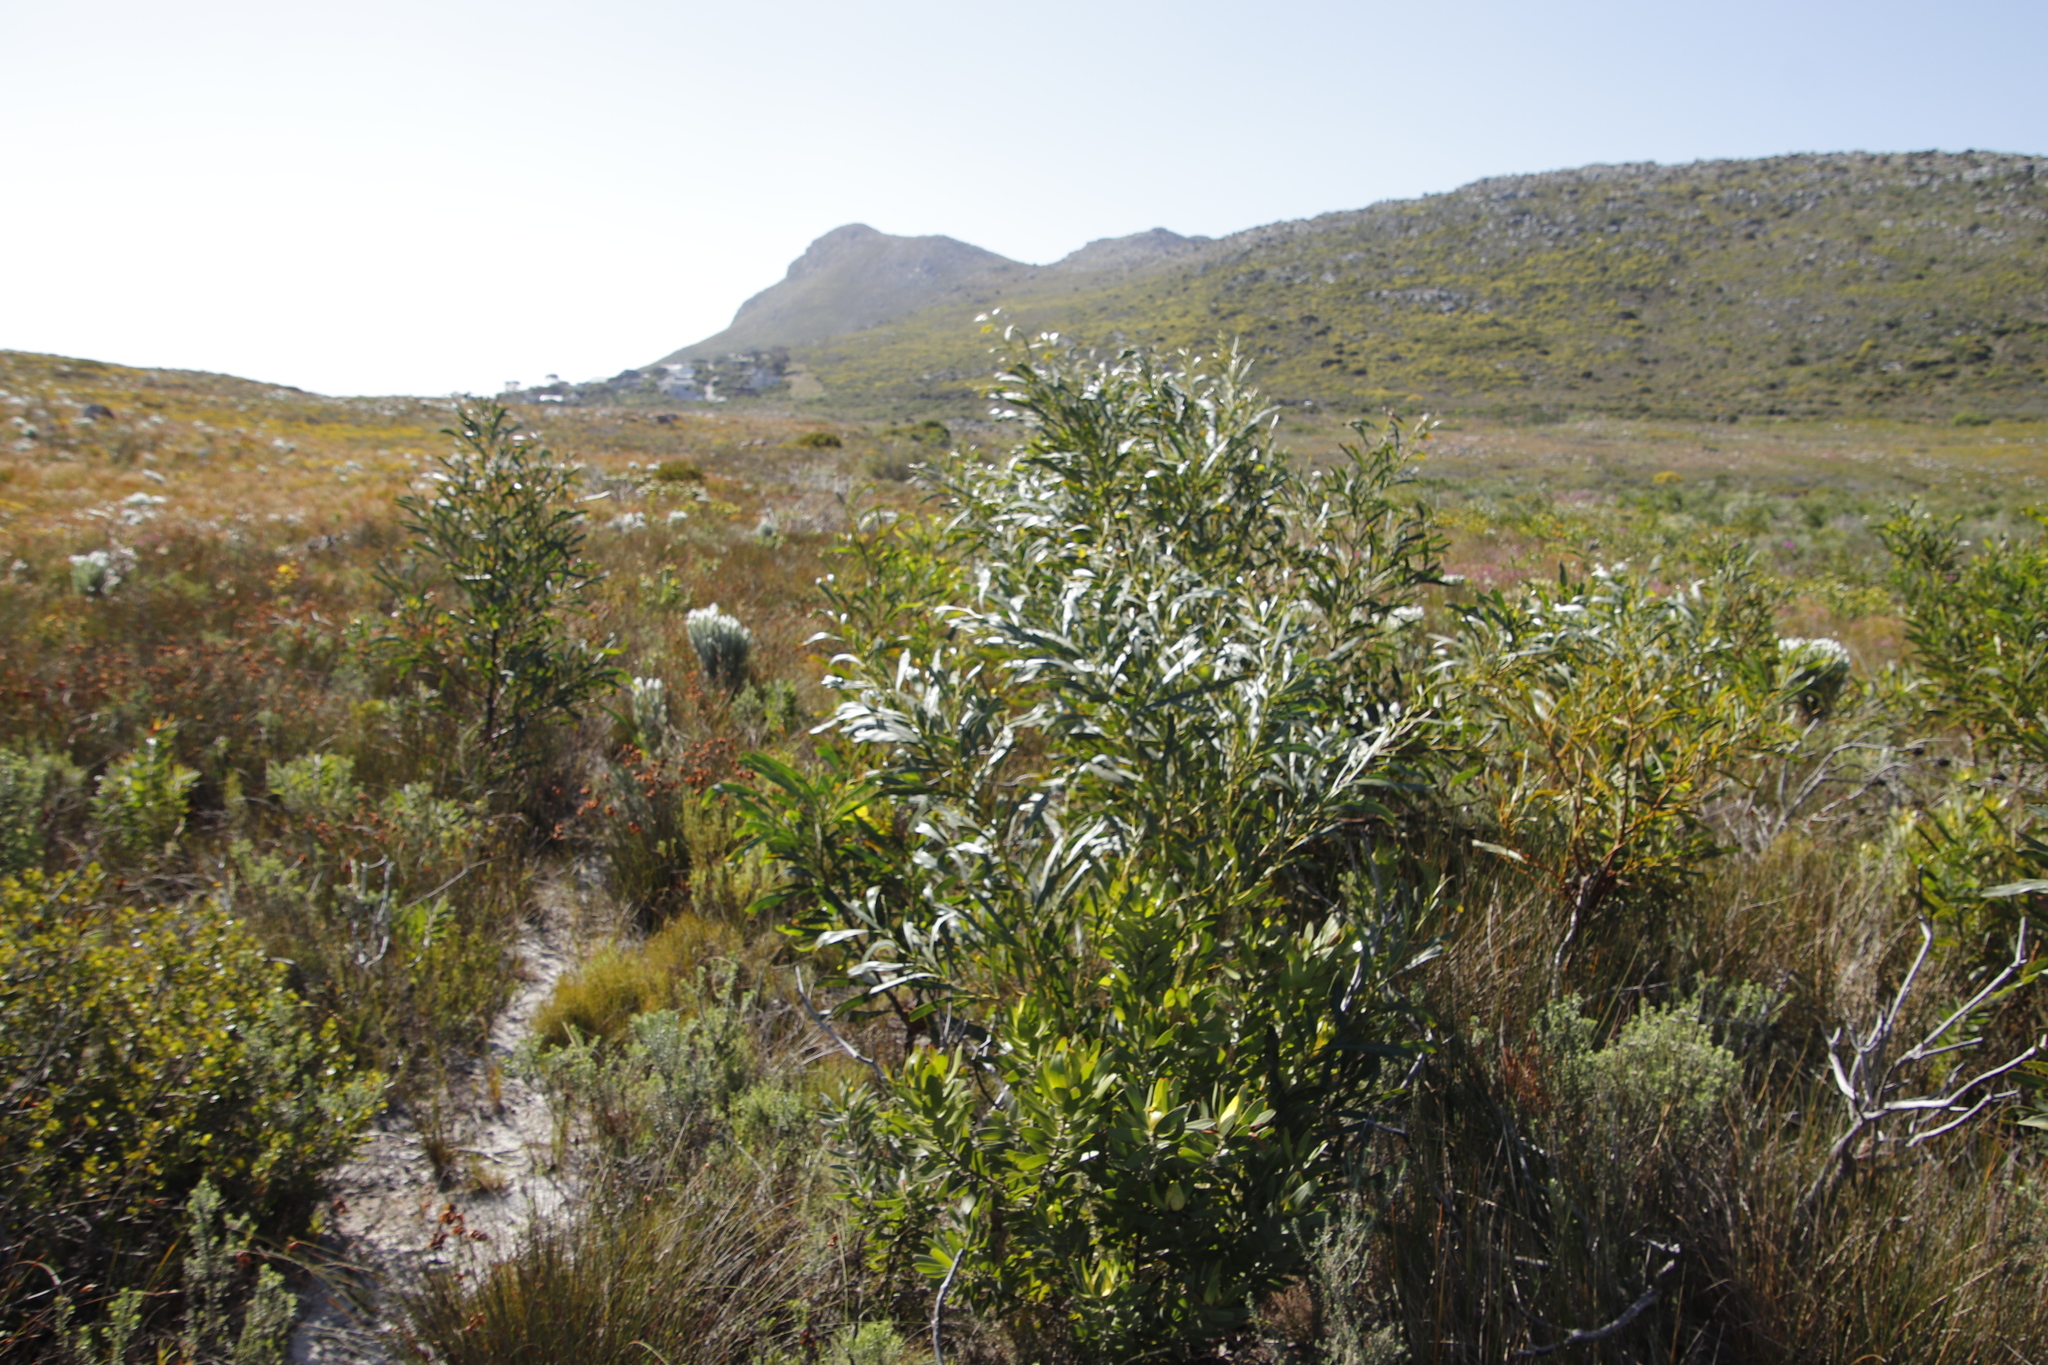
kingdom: Plantae
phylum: Tracheophyta
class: Magnoliopsida
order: Fabales
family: Fabaceae
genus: Acacia
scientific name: Acacia saligna
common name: Orange wattle
